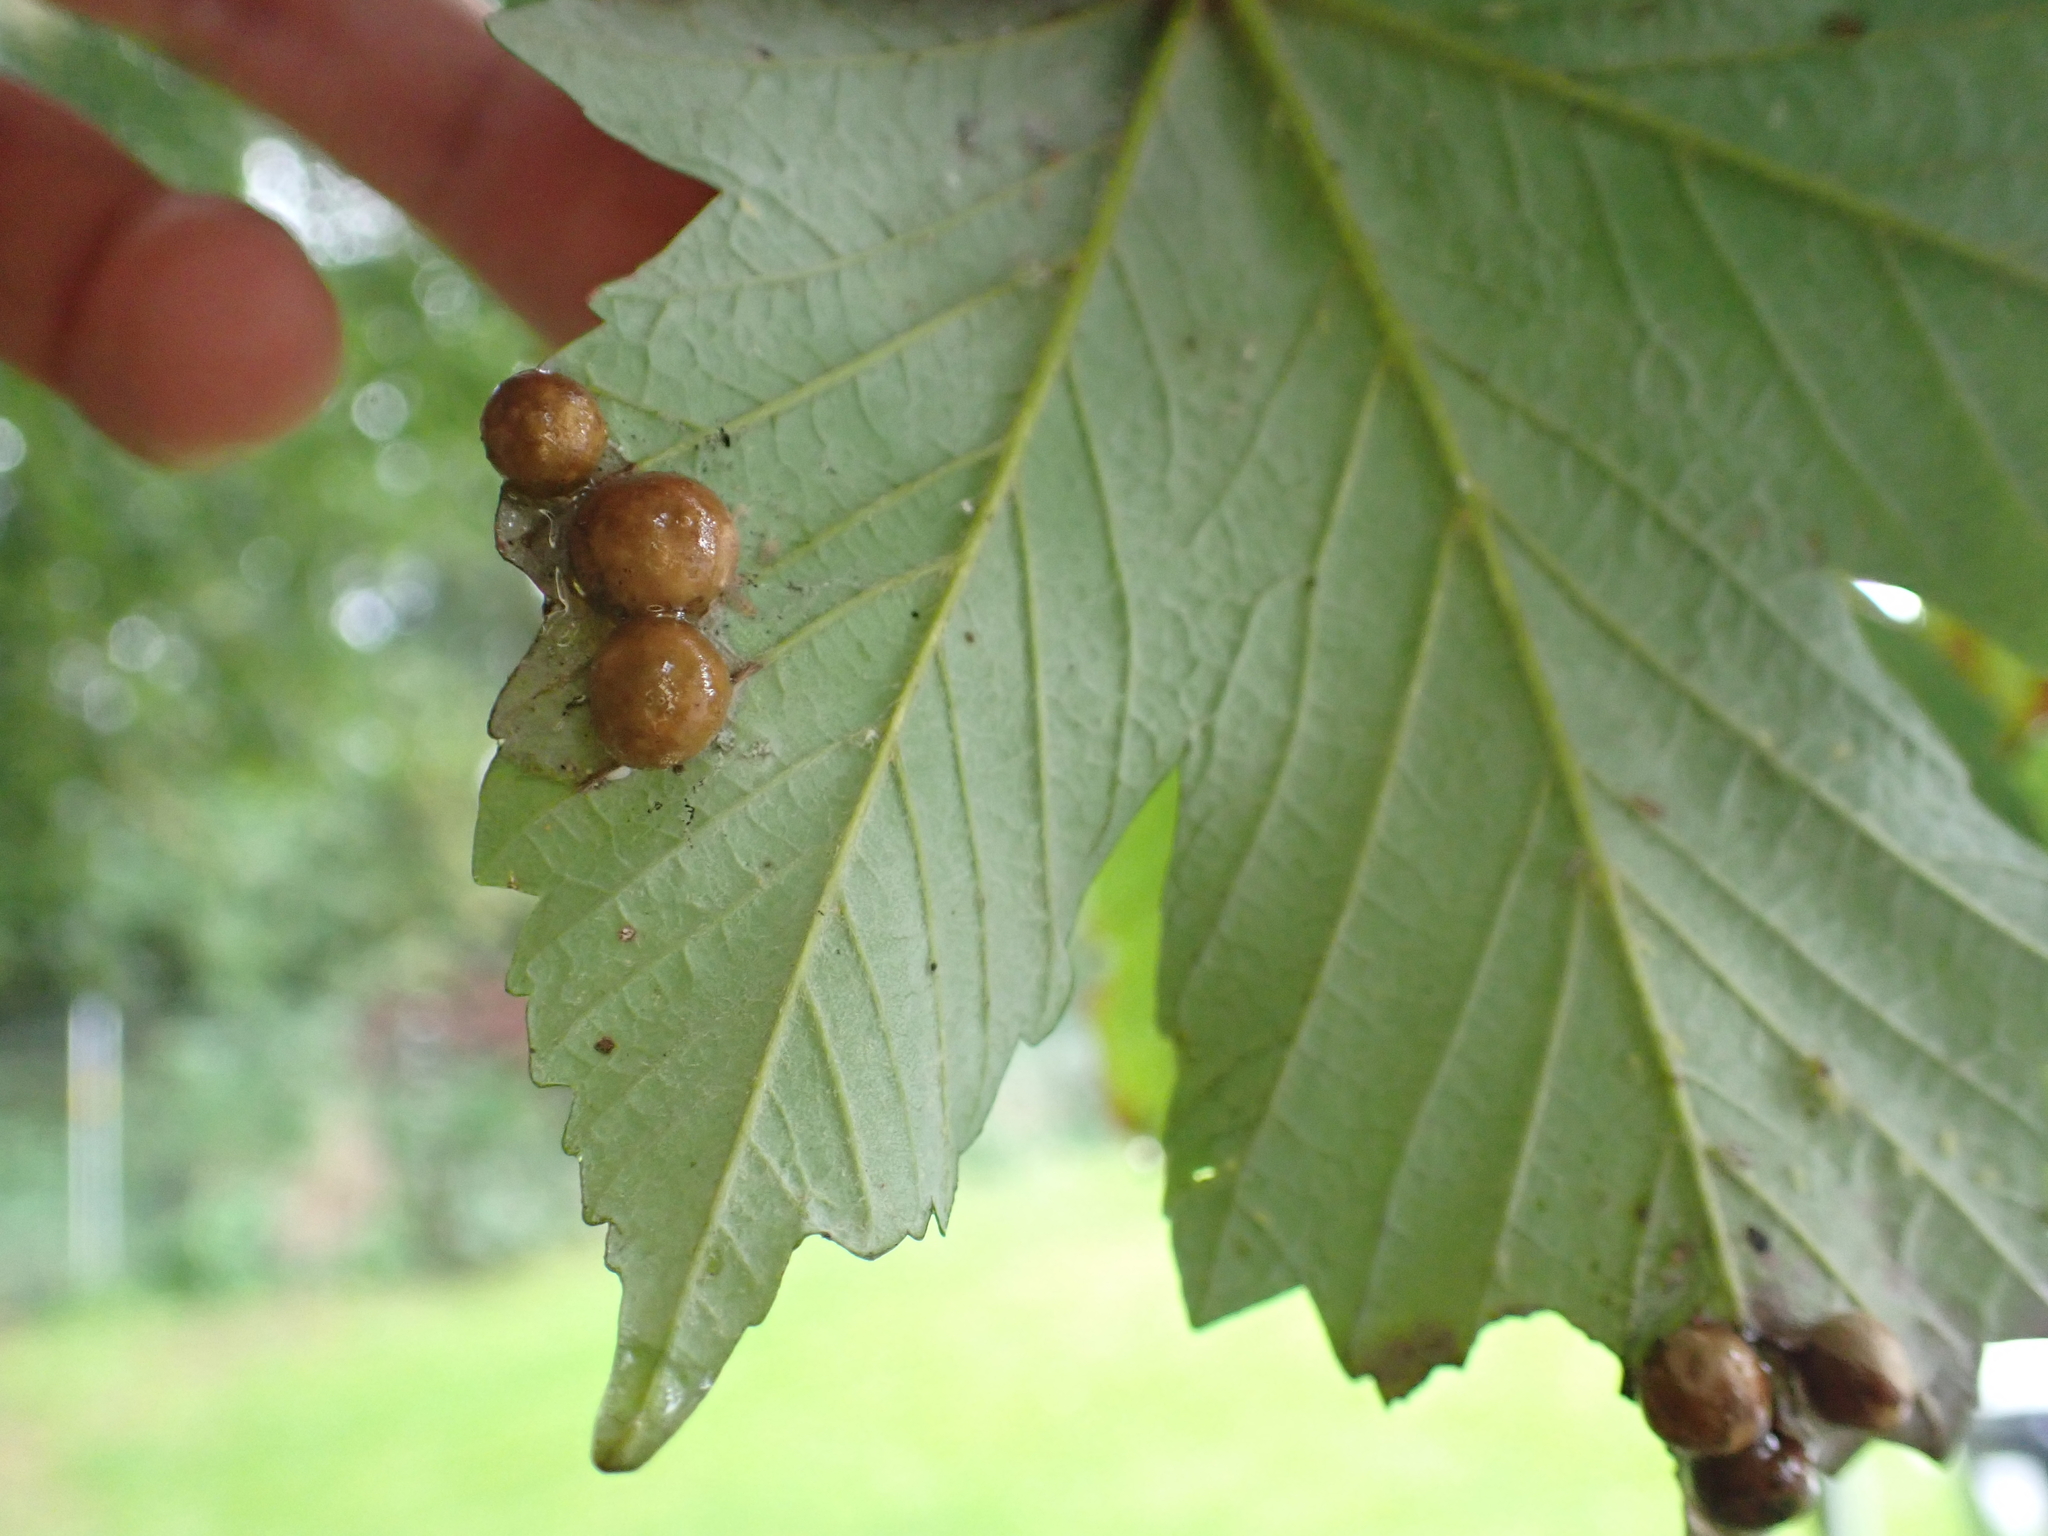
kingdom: Animalia
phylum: Arthropoda
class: Insecta
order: Hymenoptera
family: Cynipidae
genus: Pediaspis
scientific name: Pediaspis aceris
